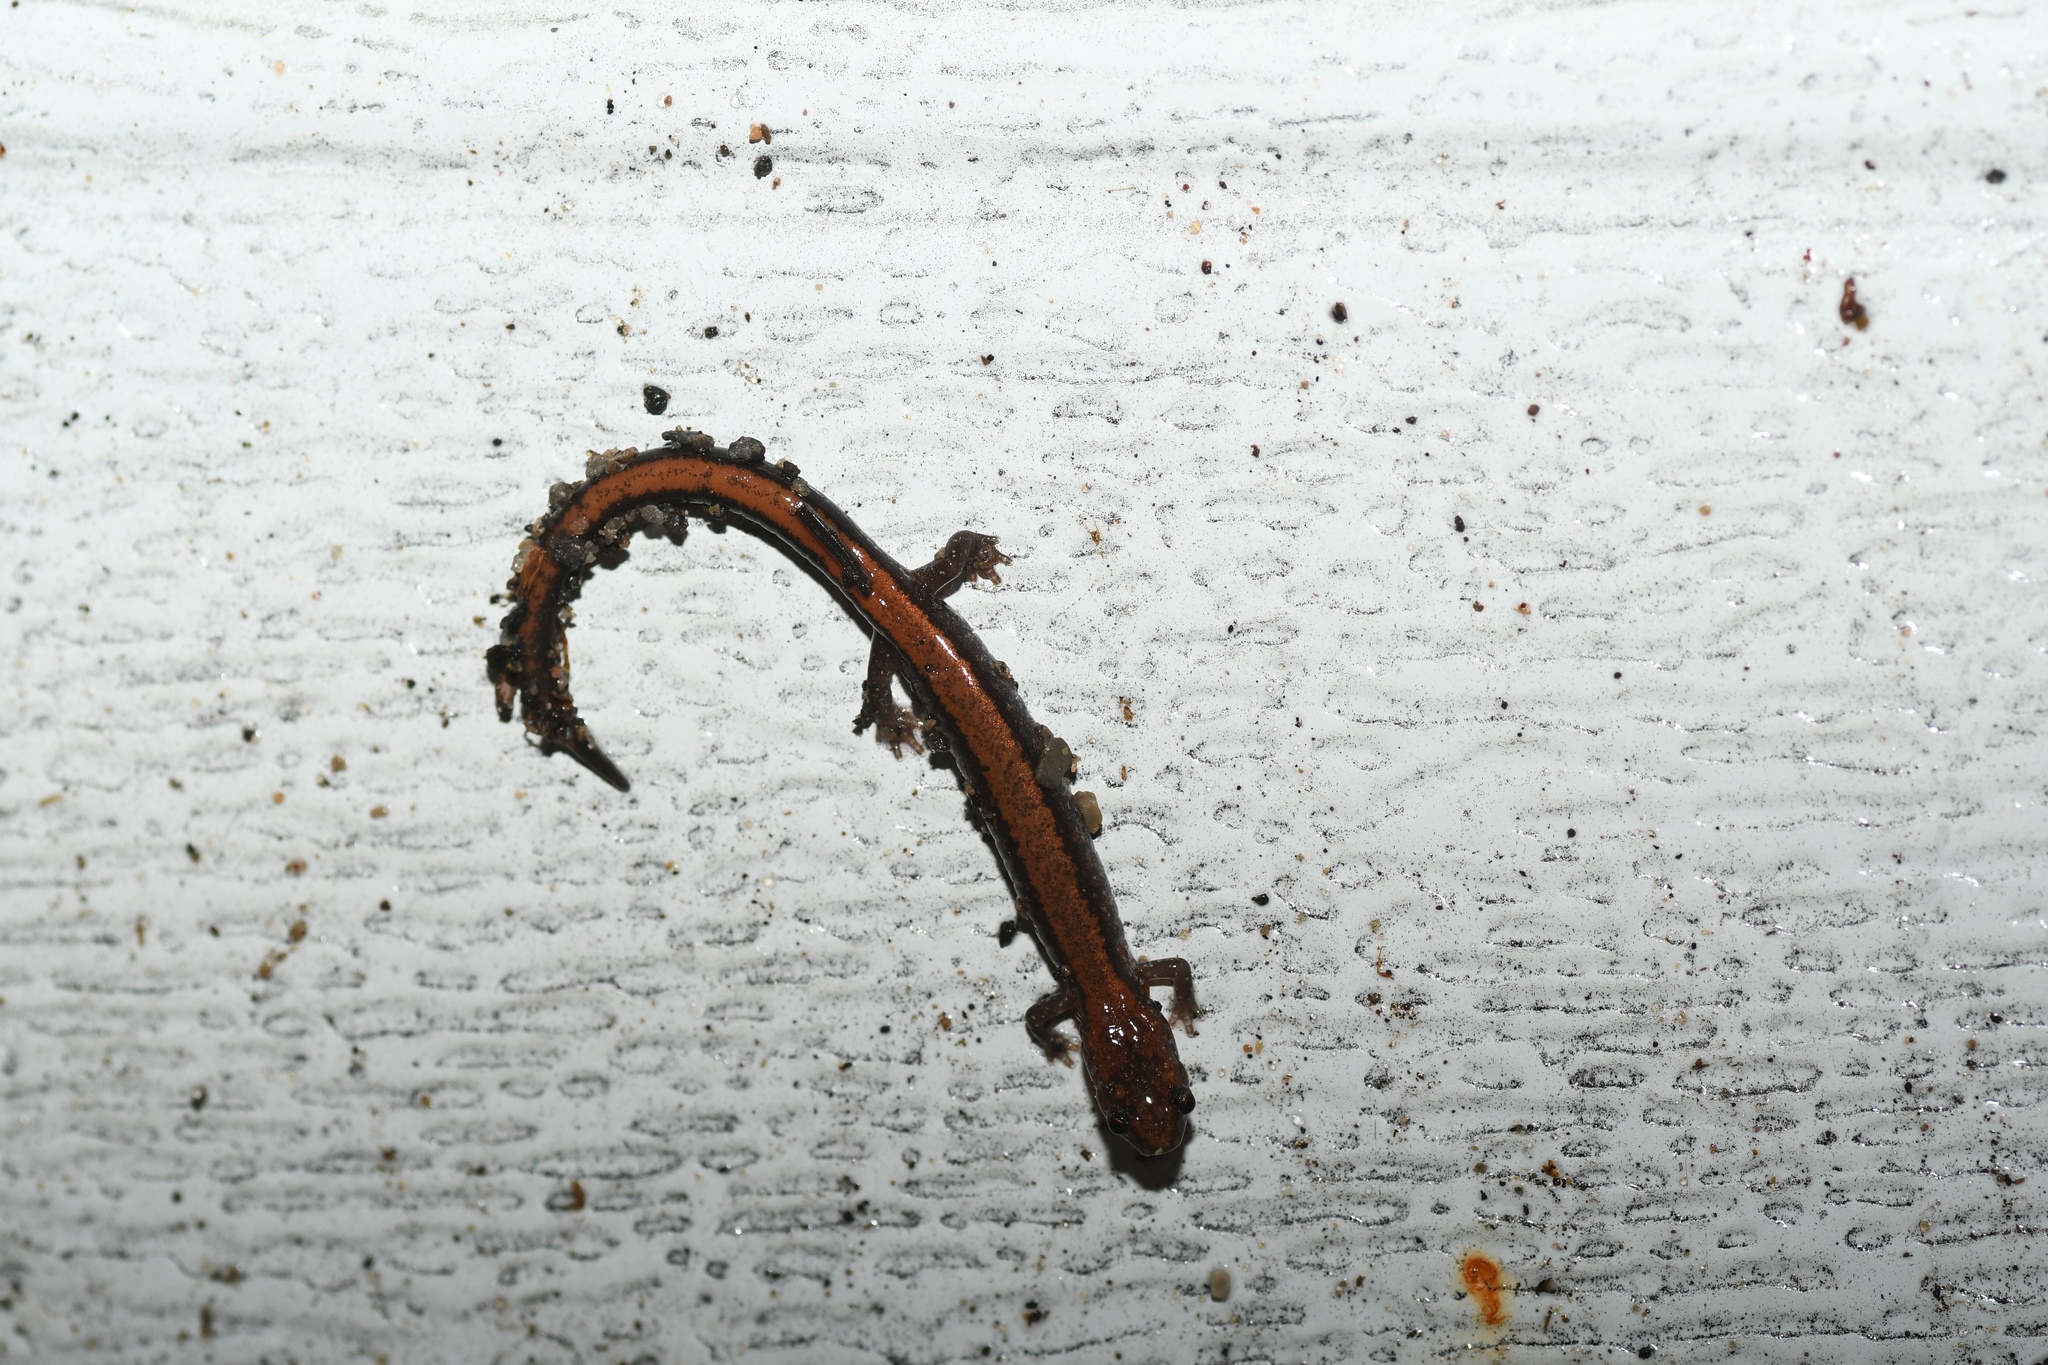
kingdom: Animalia
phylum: Chordata
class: Amphibia
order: Caudata
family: Plethodontidae
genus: Plethodon
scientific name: Plethodon cinereus
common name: Redback salamander
